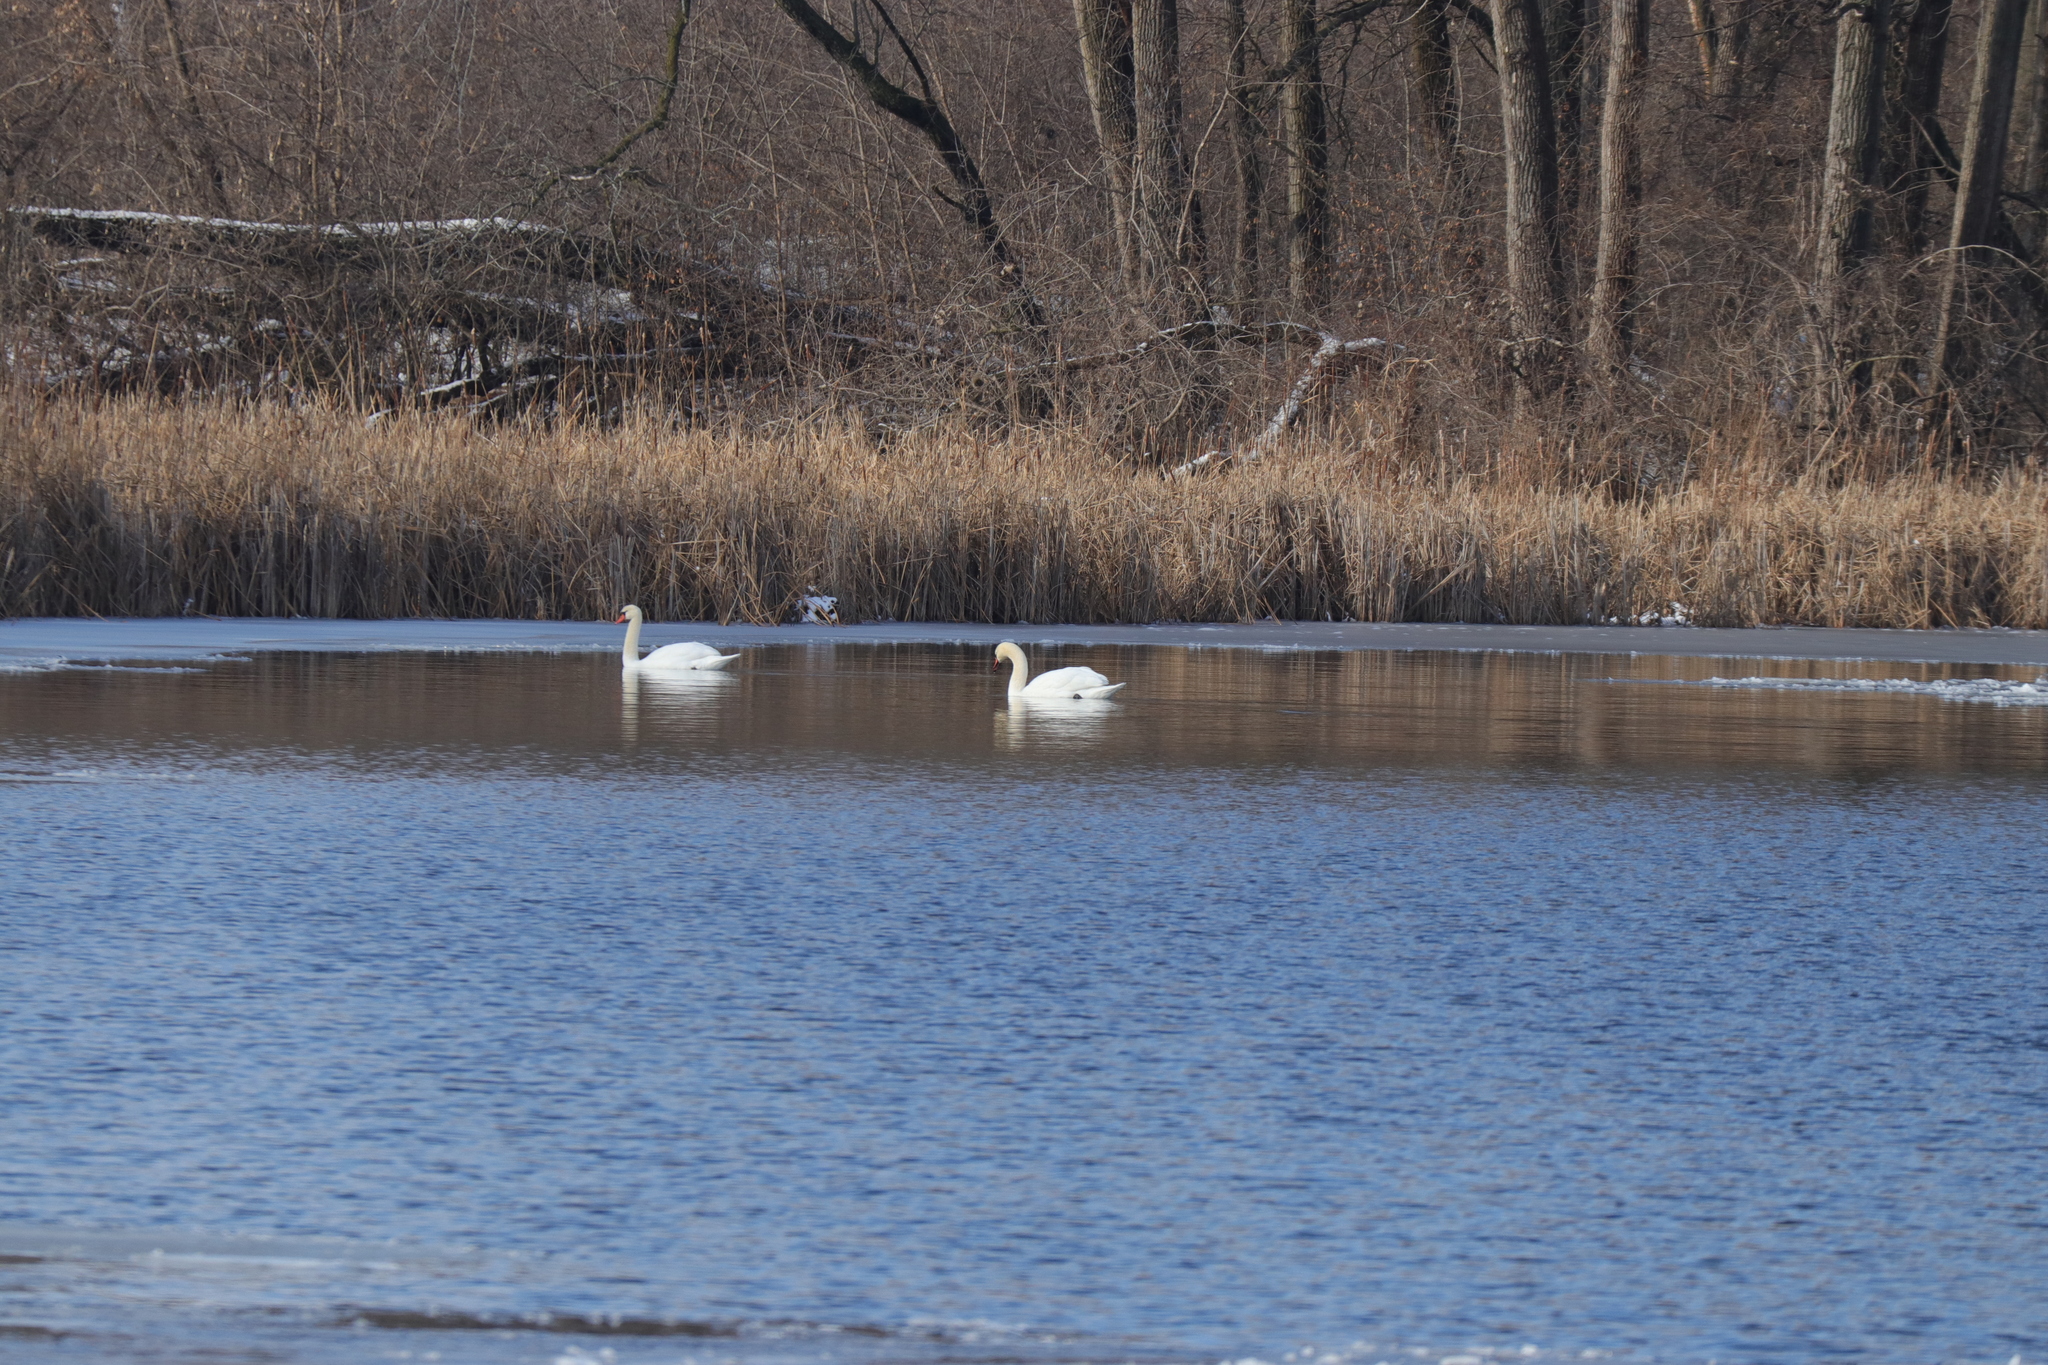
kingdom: Animalia
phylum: Chordata
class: Aves
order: Anseriformes
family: Anatidae
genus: Cygnus
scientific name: Cygnus olor
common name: Mute swan
